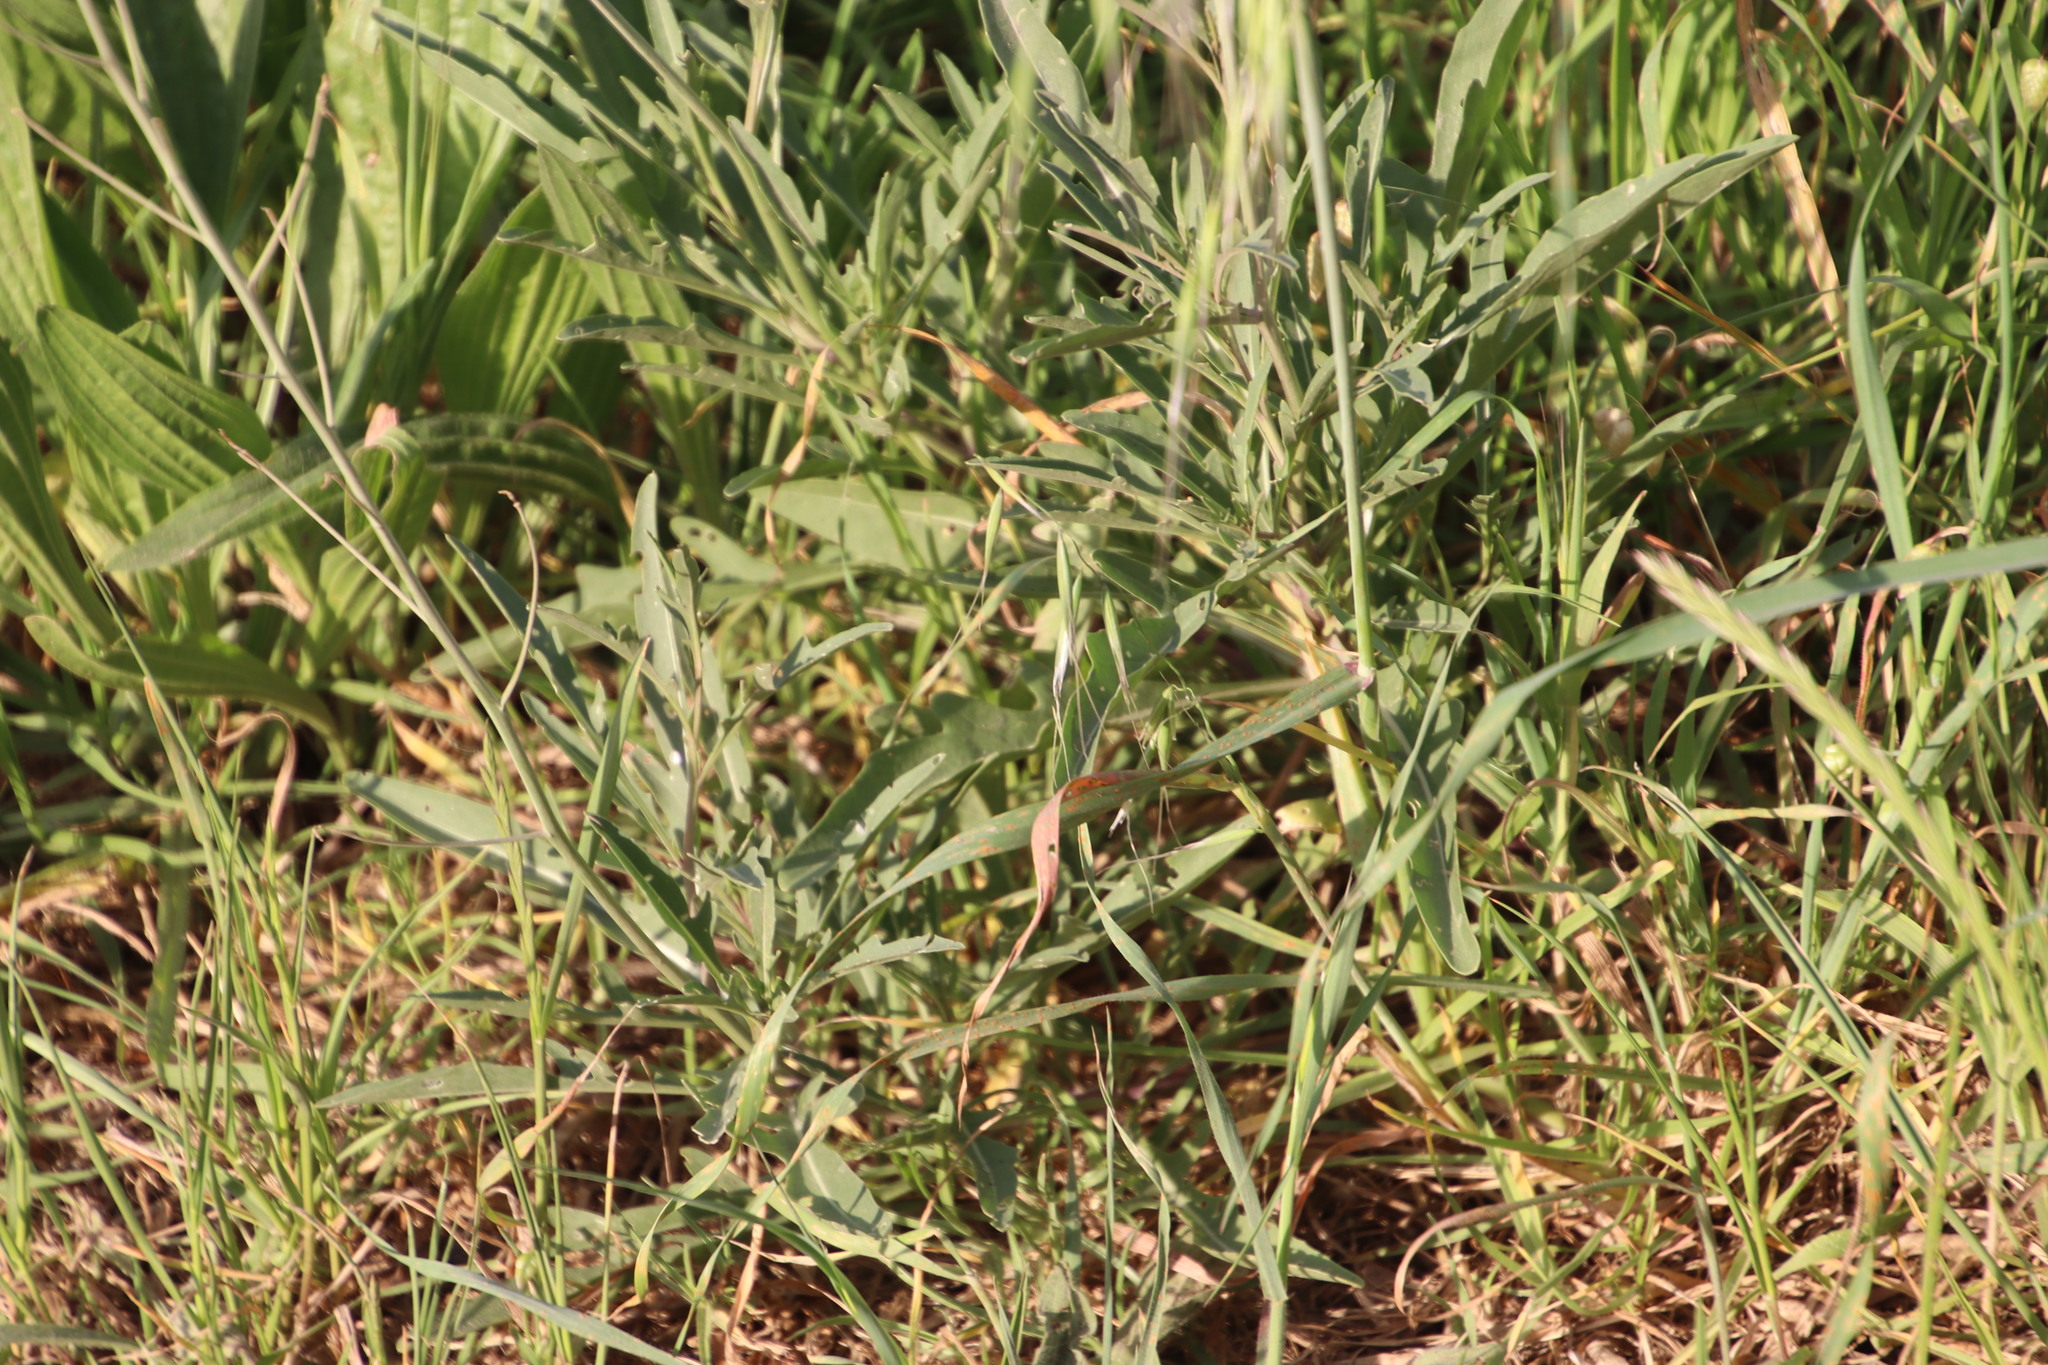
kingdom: Plantae
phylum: Tracheophyta
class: Magnoliopsida
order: Brassicales
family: Brassicaceae
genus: Diplotaxis
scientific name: Diplotaxis tenuifolia
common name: Perennial wall-rocket
